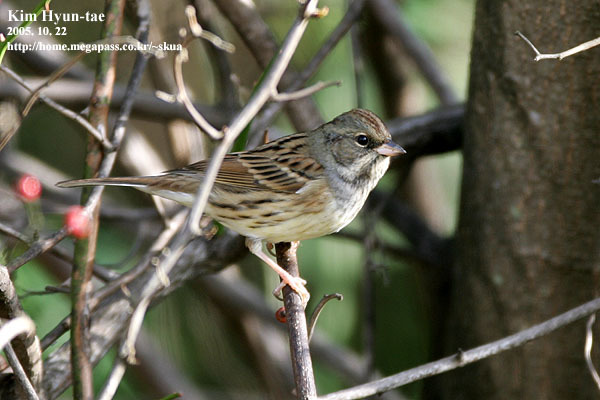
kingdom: Animalia
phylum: Chordata
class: Aves
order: Passeriformes
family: Emberizidae
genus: Emberiza
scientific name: Emberiza spodocephala
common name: Black-faced bunting
